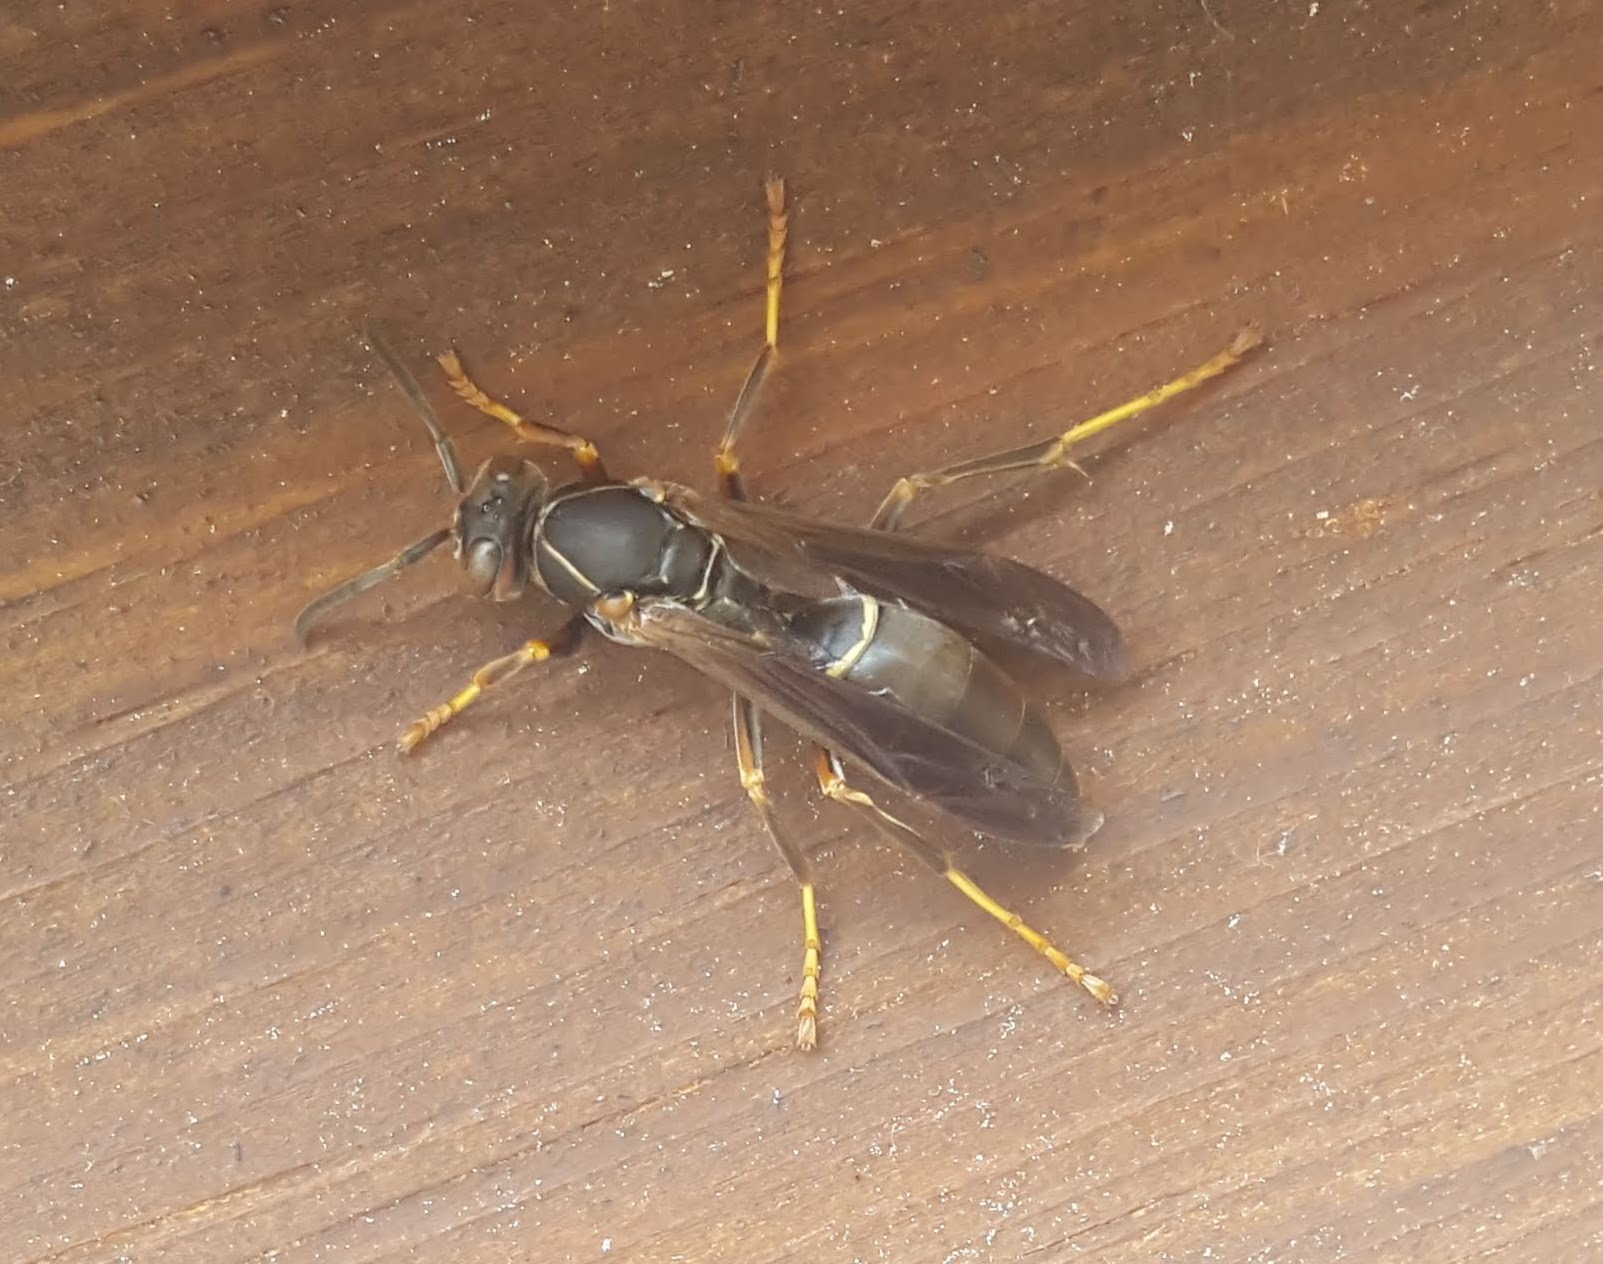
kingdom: Animalia
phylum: Arthropoda
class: Insecta
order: Hymenoptera
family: Eumenidae
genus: Polistes
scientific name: Polistes fuscatus
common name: Dark paper wasp
